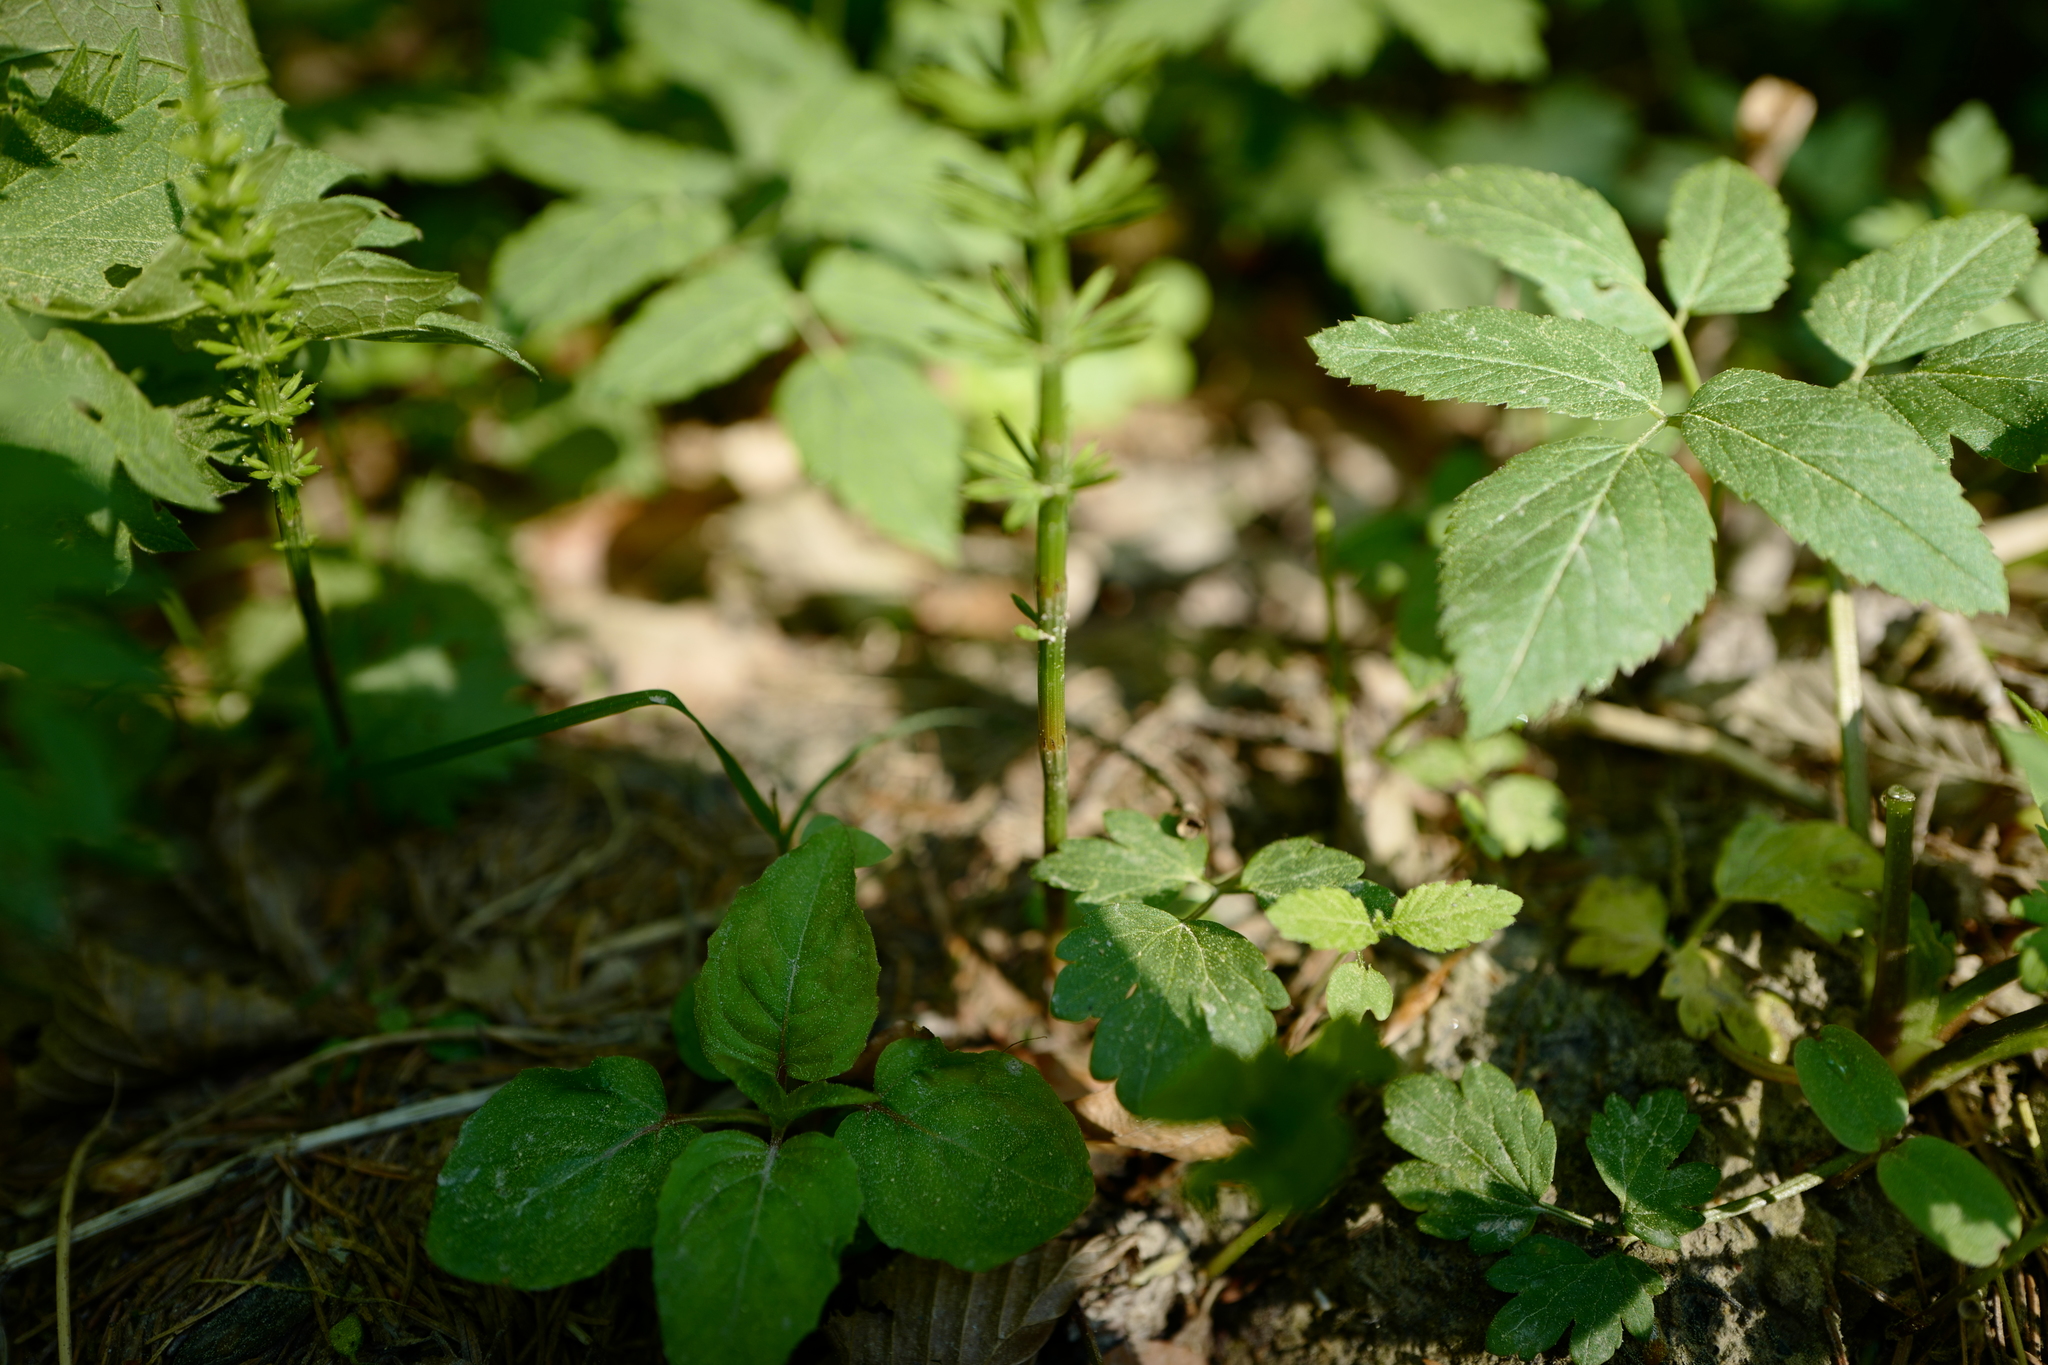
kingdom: Plantae
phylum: Tracheophyta
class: Polypodiopsida
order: Equisetales
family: Equisetaceae
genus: Equisetum
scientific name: Equisetum arvense
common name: Field horsetail
